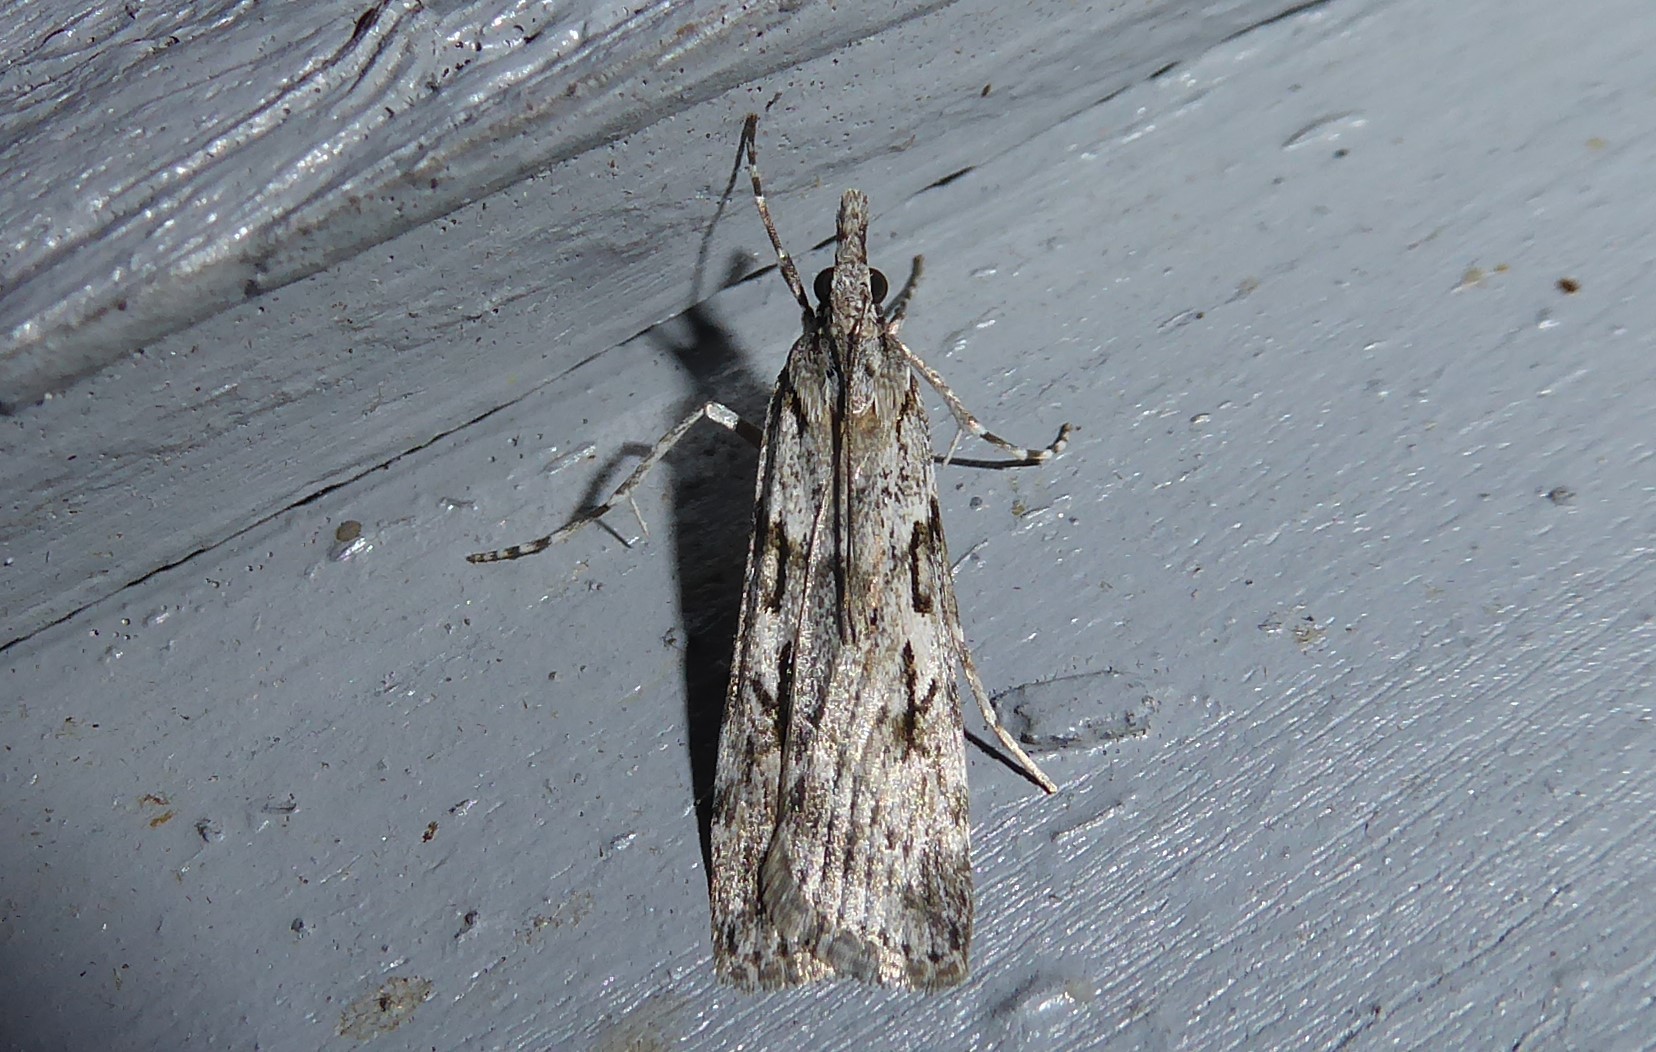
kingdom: Animalia
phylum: Arthropoda
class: Insecta
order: Lepidoptera
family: Crambidae
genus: Scoparia
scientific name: Scoparia halopis
